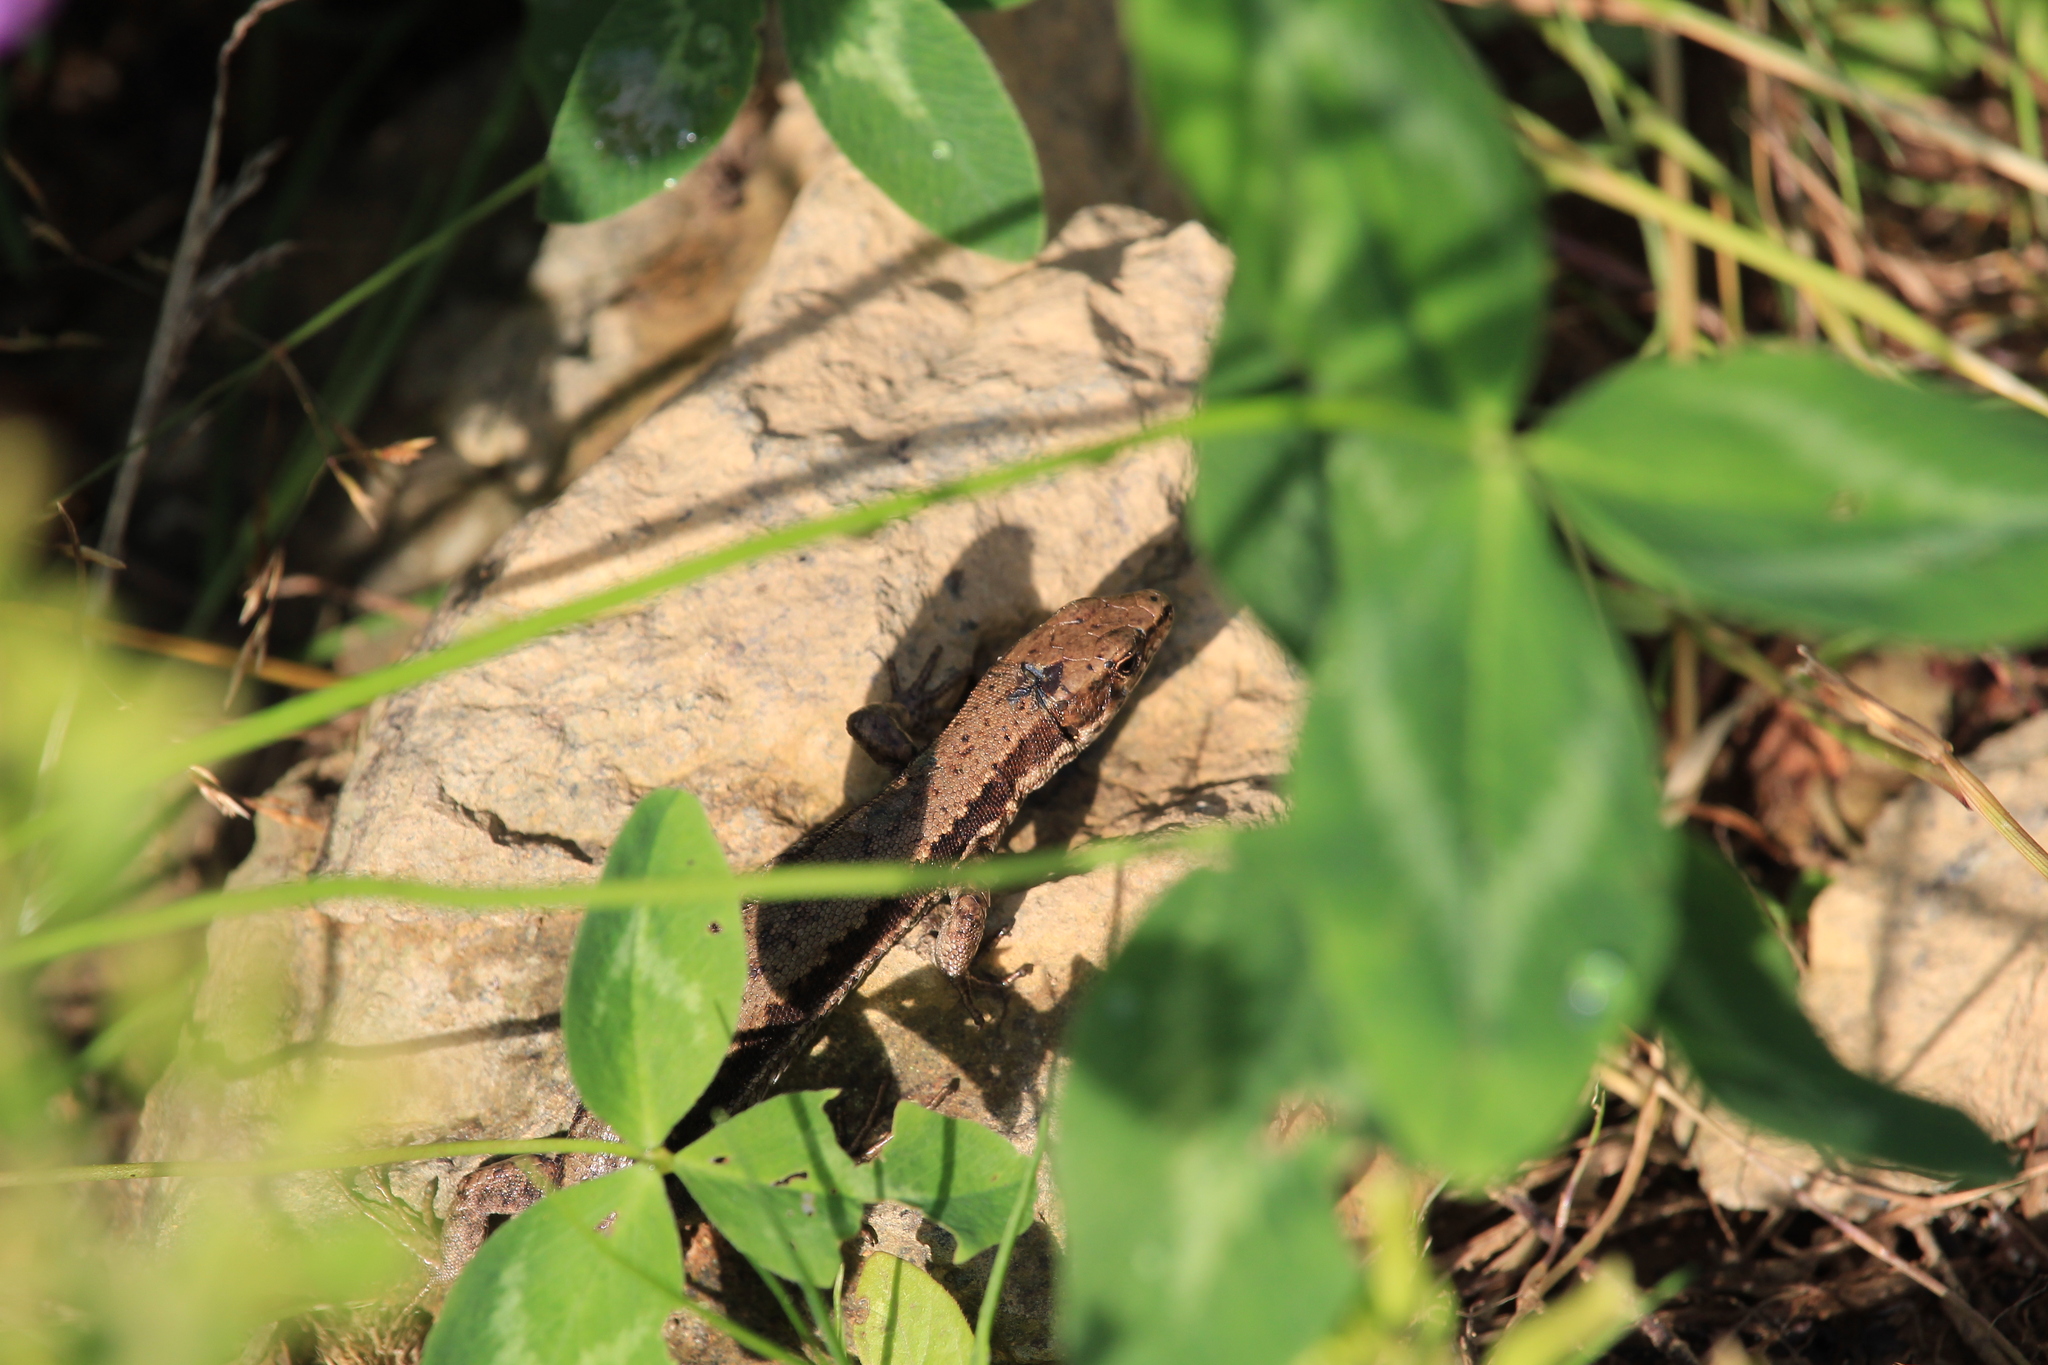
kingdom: Animalia
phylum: Chordata
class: Squamata
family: Lacertidae
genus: Darevskia
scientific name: Darevskia derjugini
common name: Derjugin's lizard
